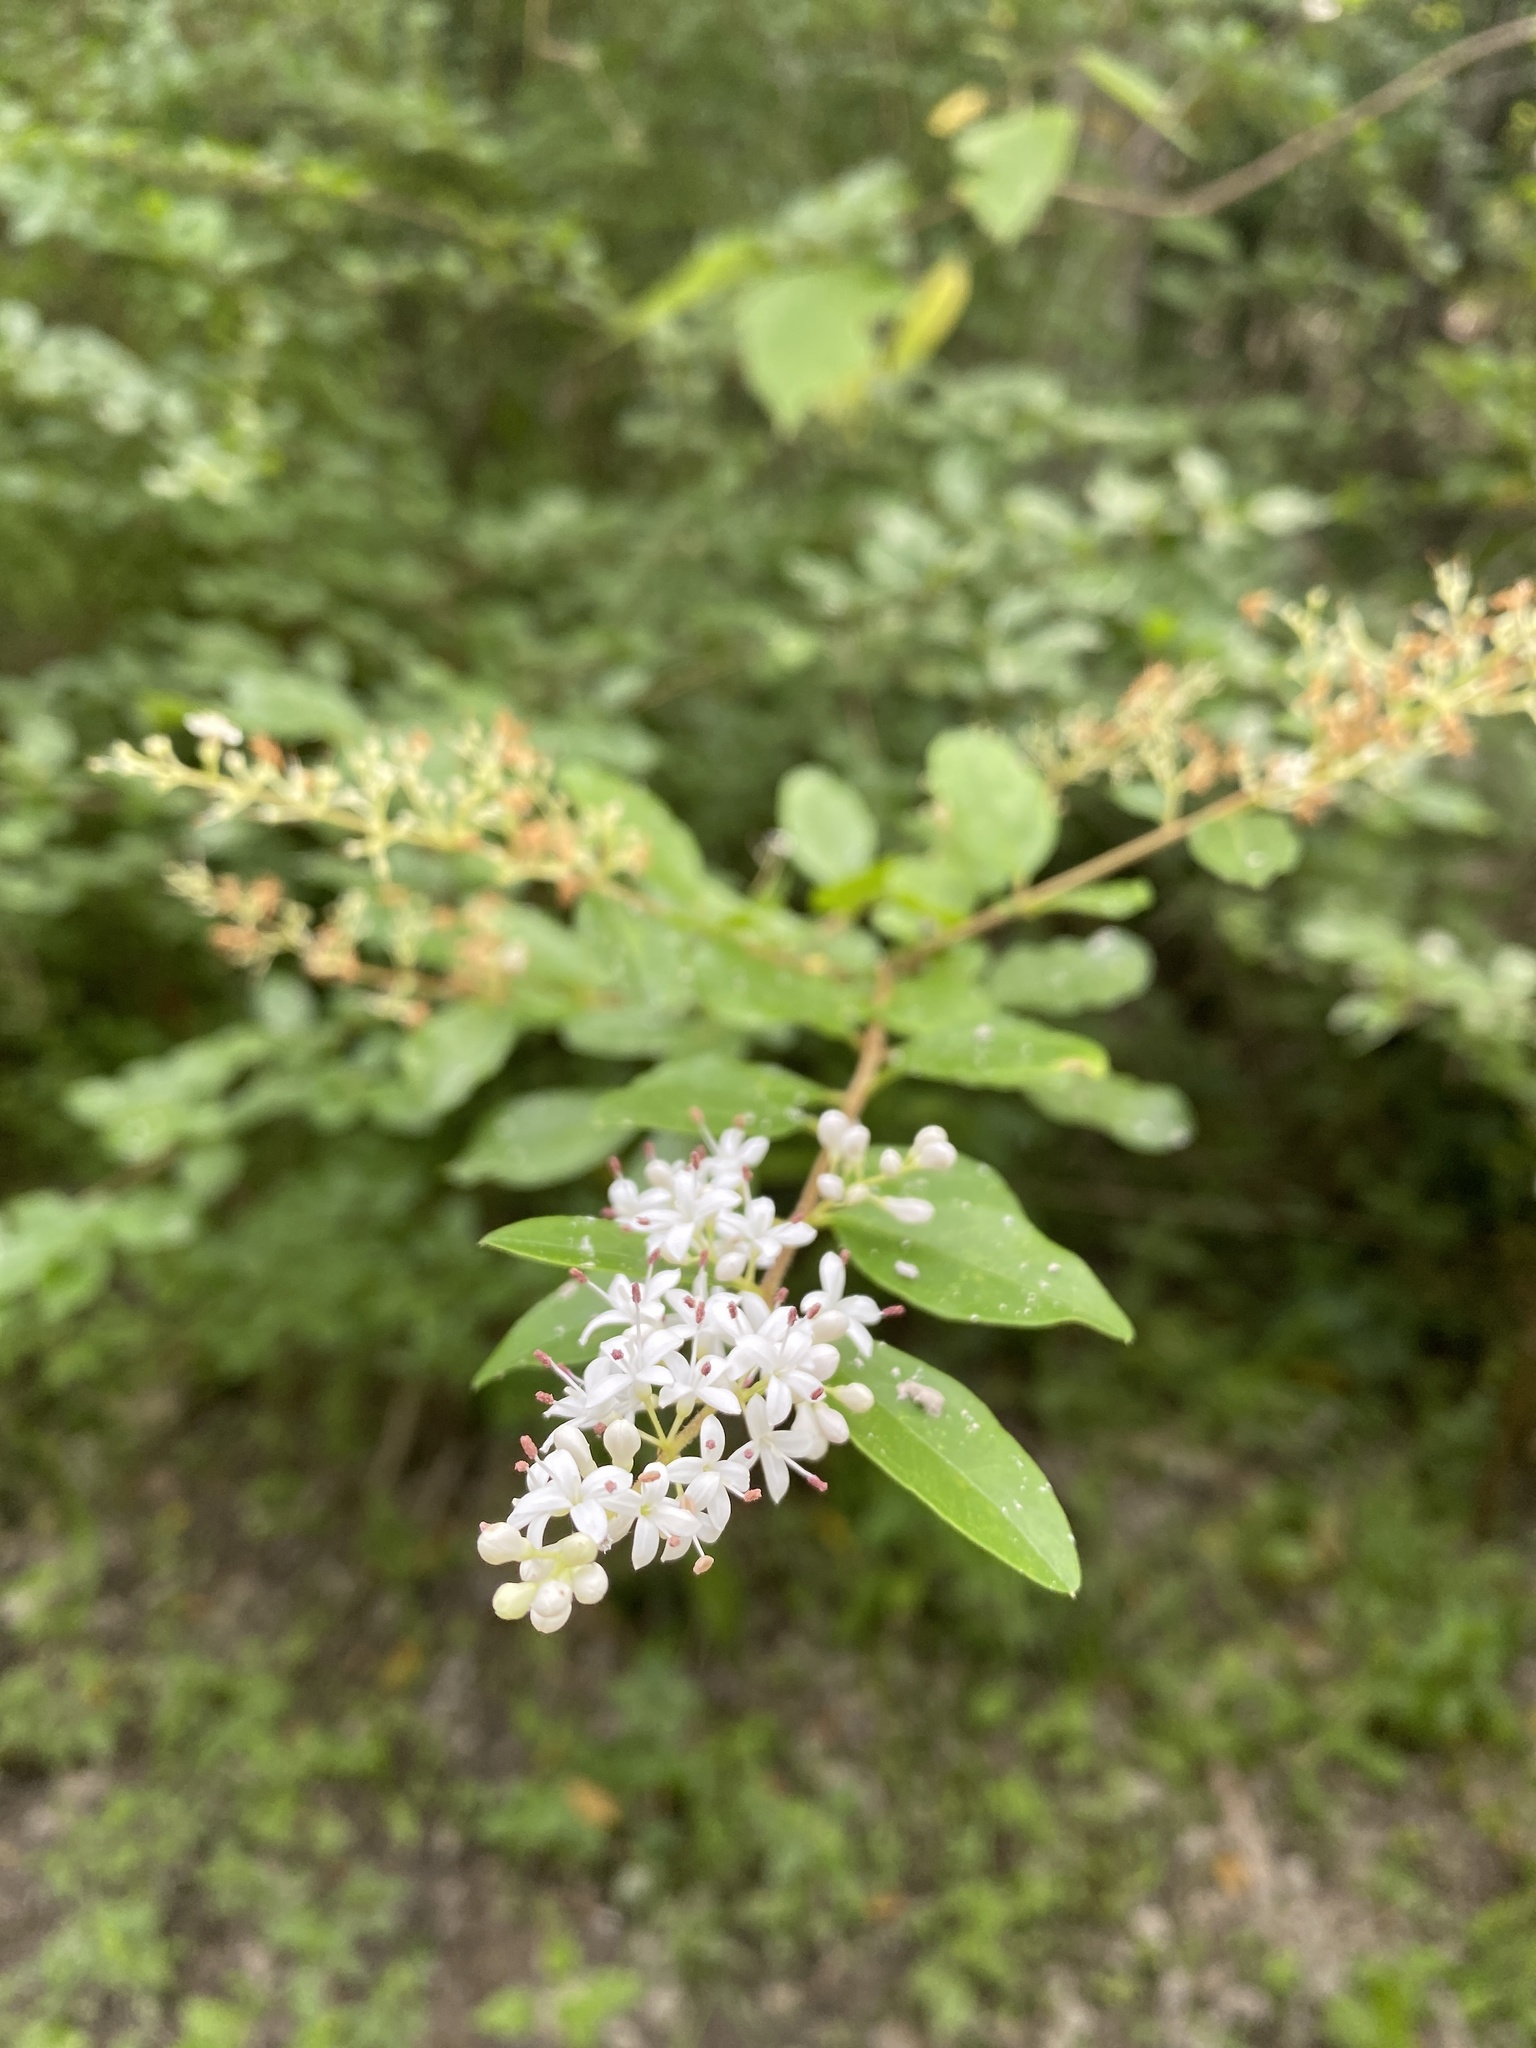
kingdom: Plantae
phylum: Tracheophyta
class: Magnoliopsida
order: Lamiales
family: Oleaceae
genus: Ligustrum
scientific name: Ligustrum sinense
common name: Chinese privet
